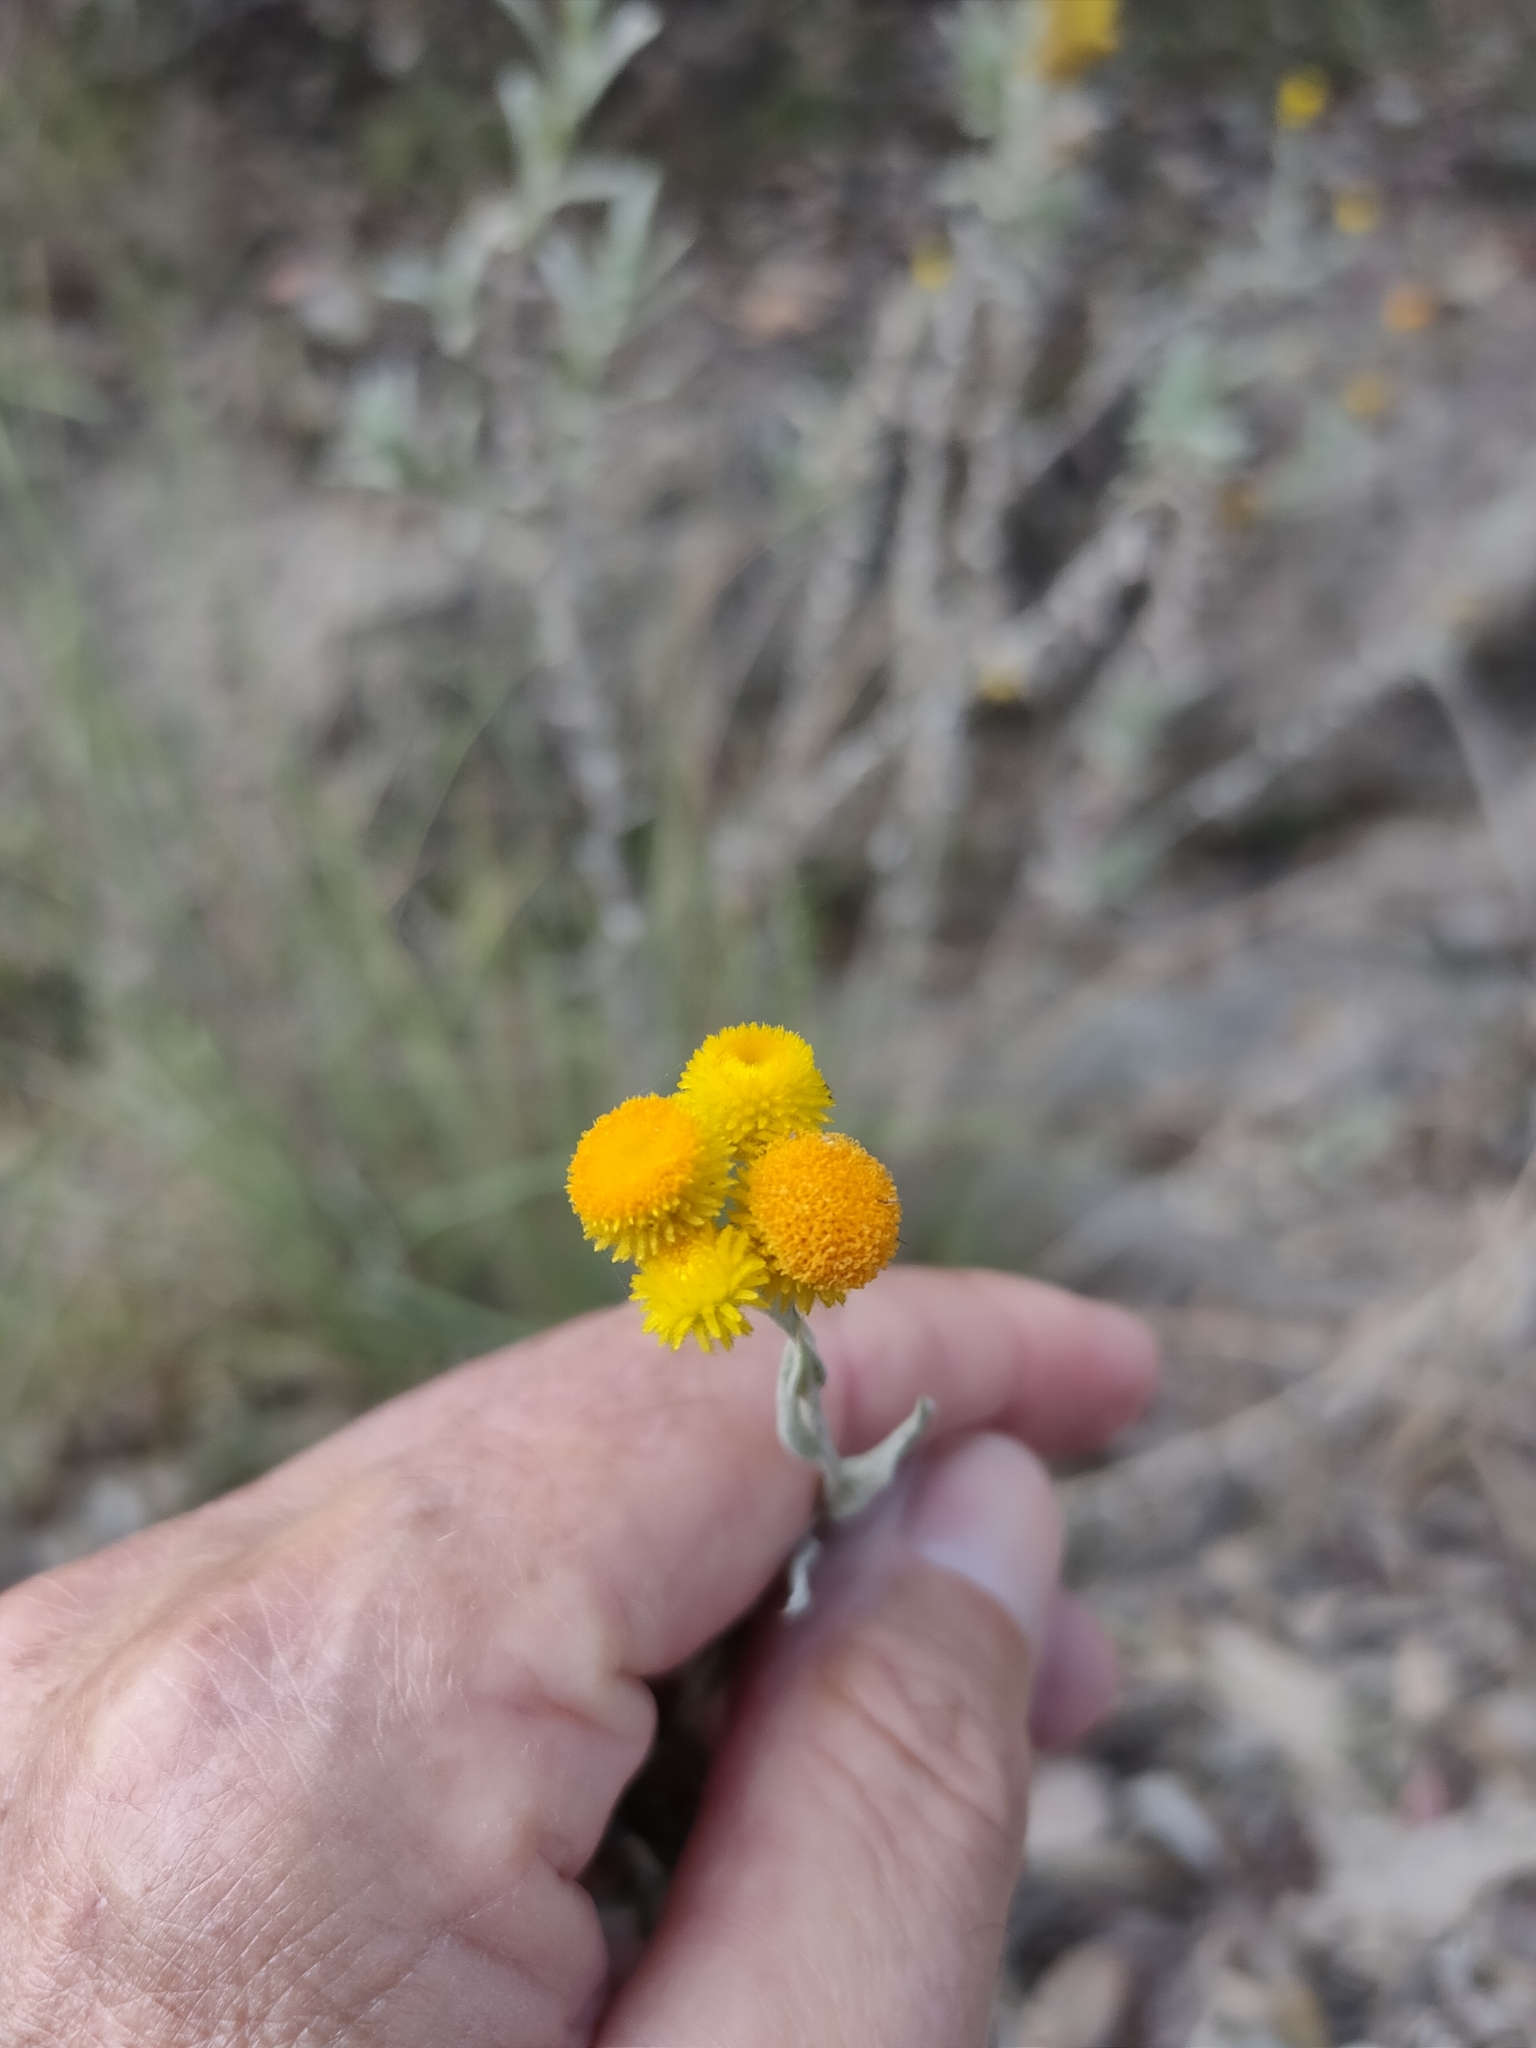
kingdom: Plantae
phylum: Tracheophyta
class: Magnoliopsida
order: Asterales
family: Asteraceae
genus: Chrysocephalum
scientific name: Chrysocephalum apiculatum
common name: Common everlasting
